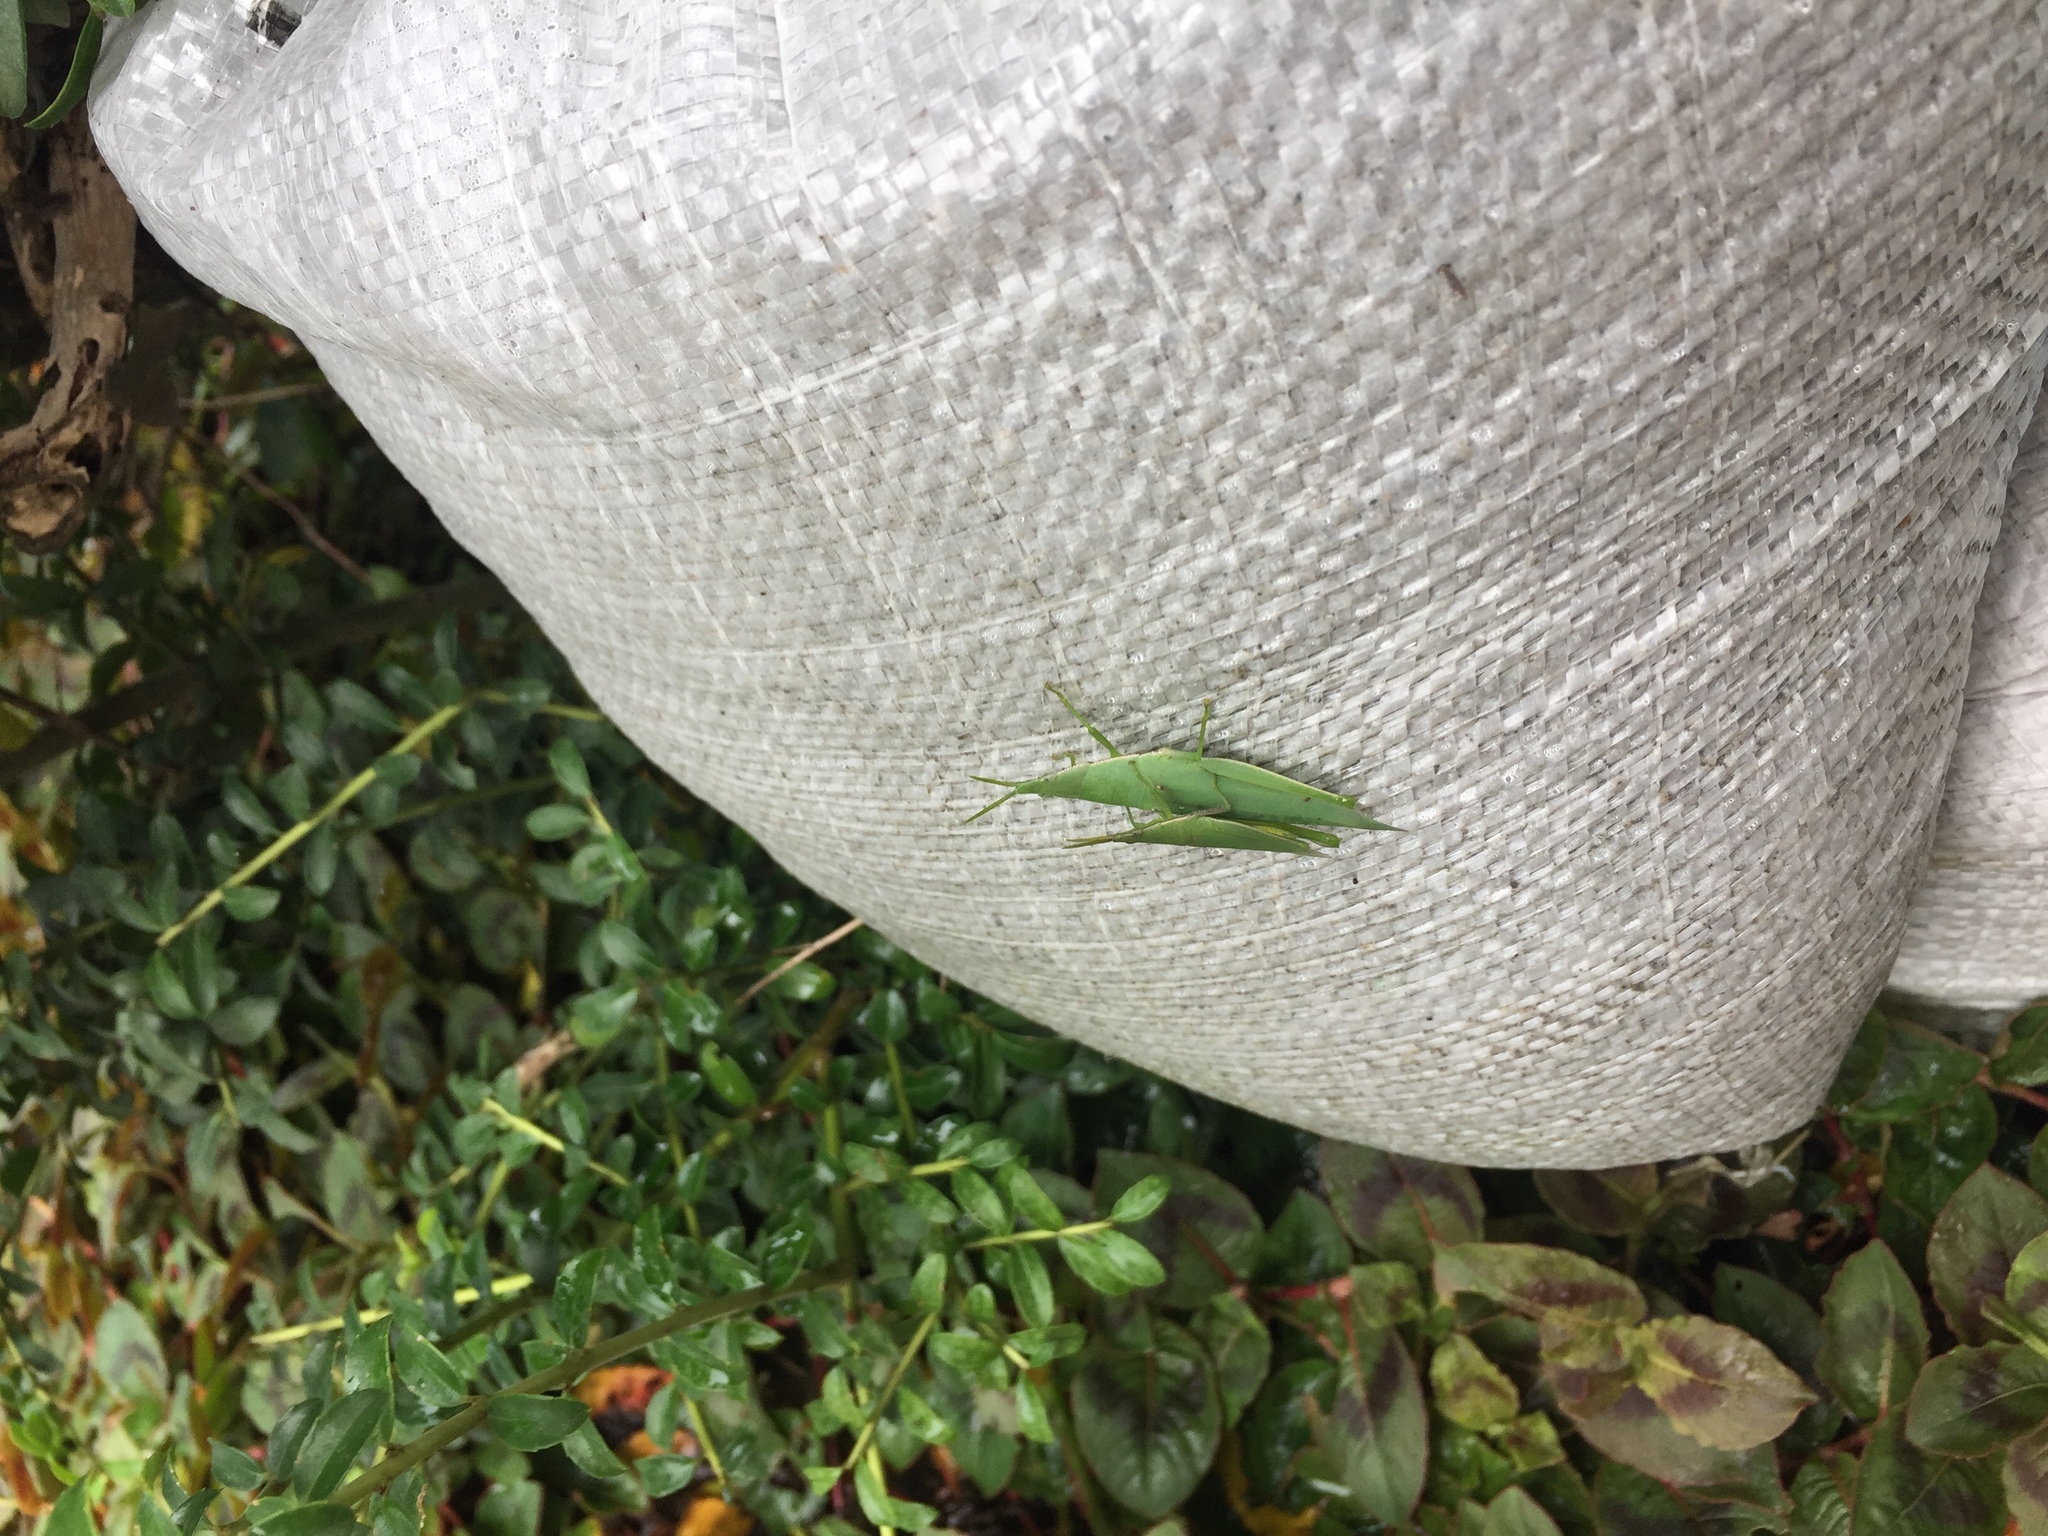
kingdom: Animalia
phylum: Arthropoda
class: Insecta
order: Orthoptera
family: Pyrgomorphidae
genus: Atractomorpha
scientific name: Atractomorpha lata
